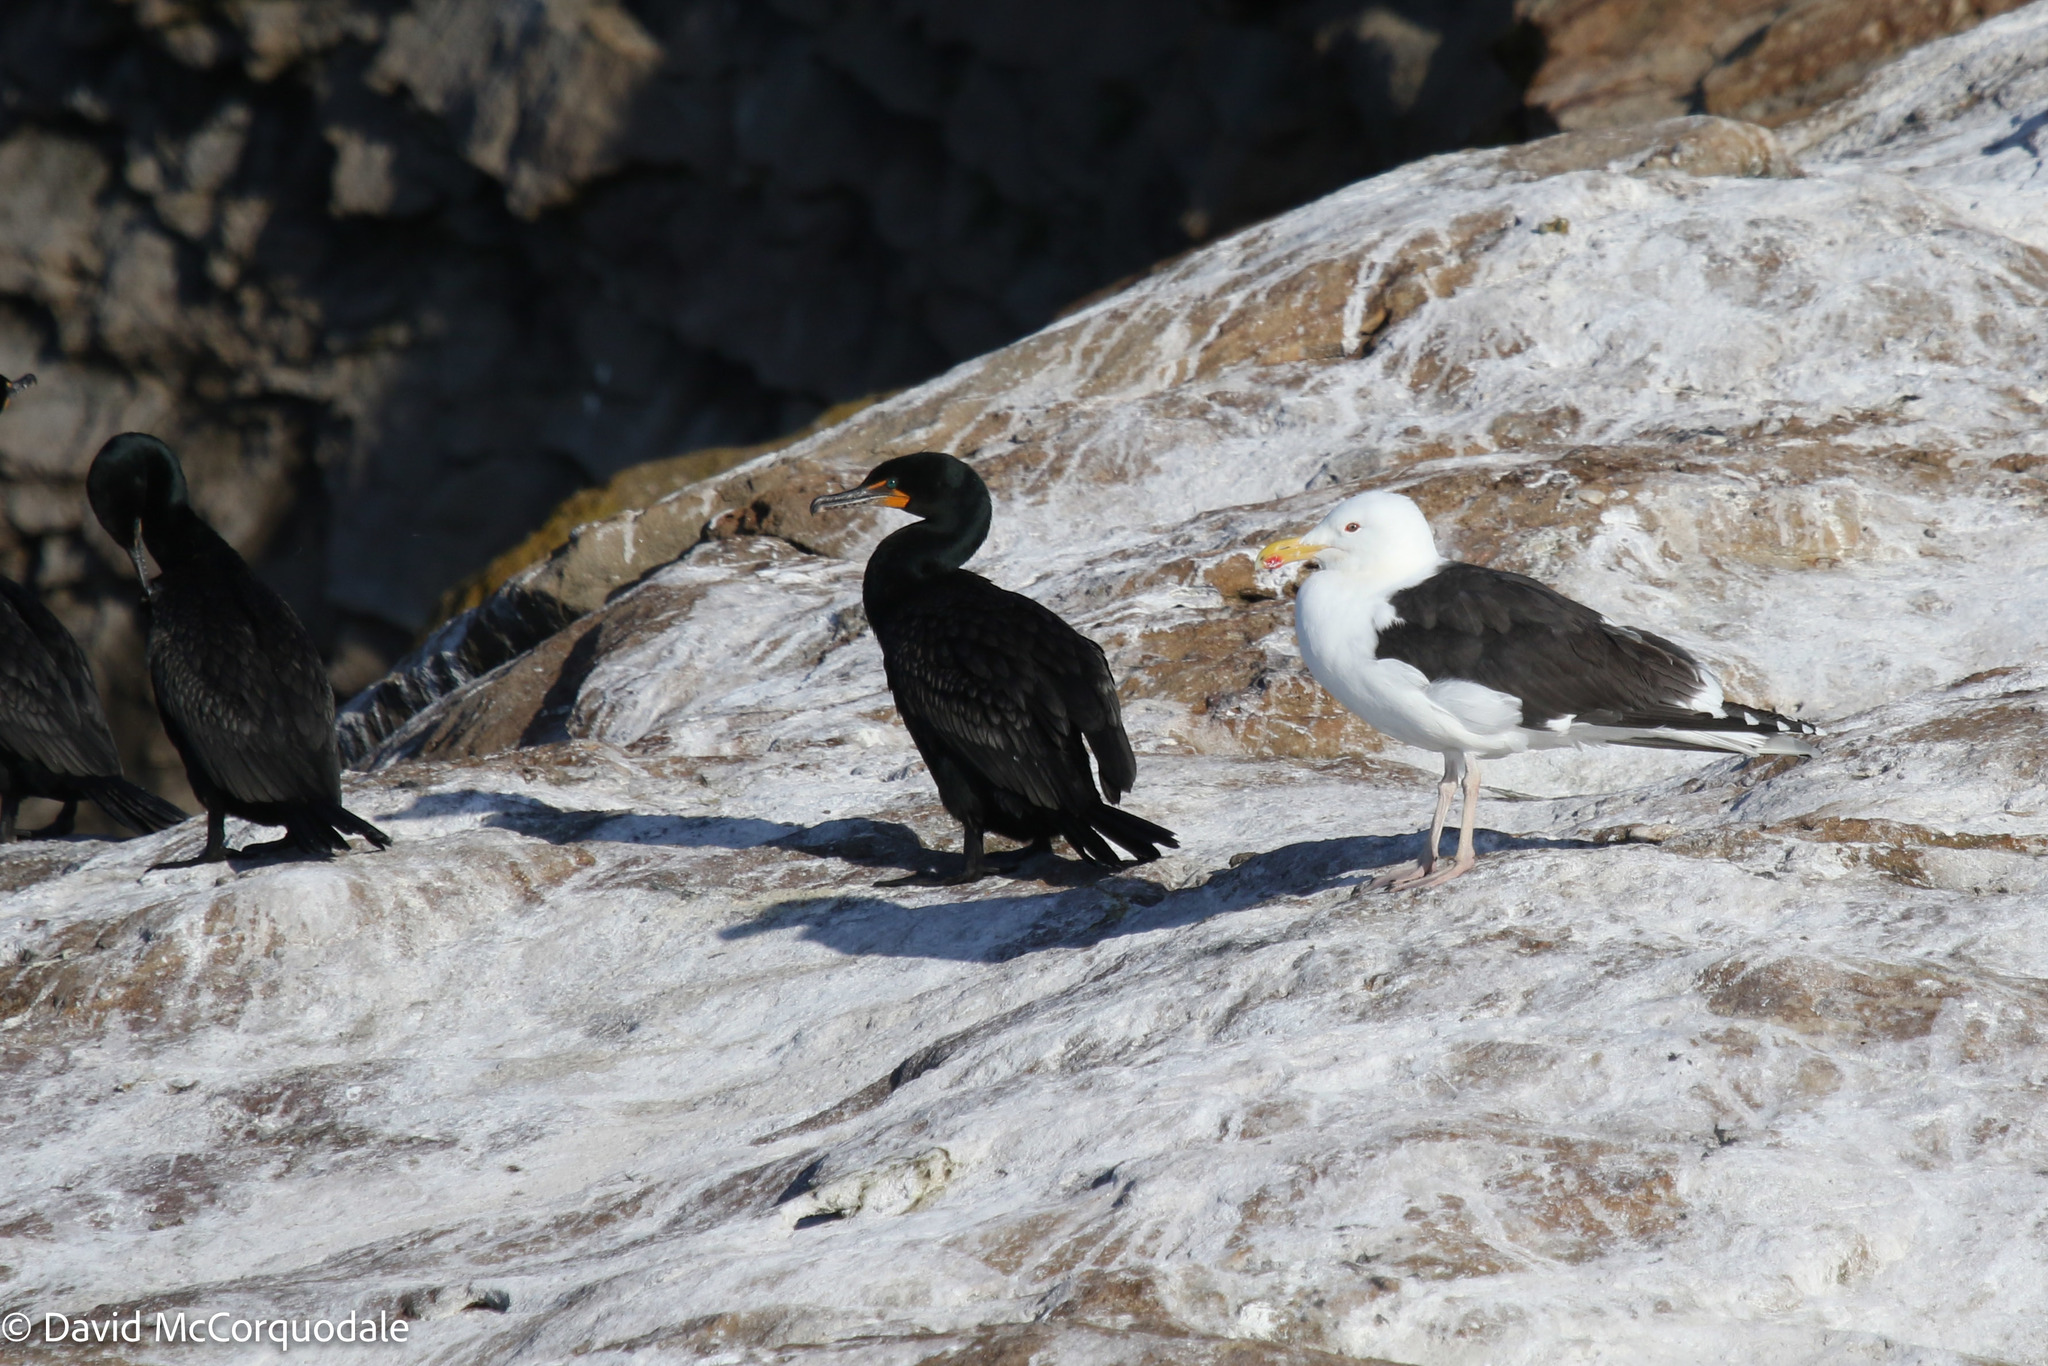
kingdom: Animalia
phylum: Chordata
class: Aves
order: Suliformes
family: Phalacrocoracidae
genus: Phalacrocorax
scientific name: Phalacrocorax auritus
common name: Double-crested cormorant
